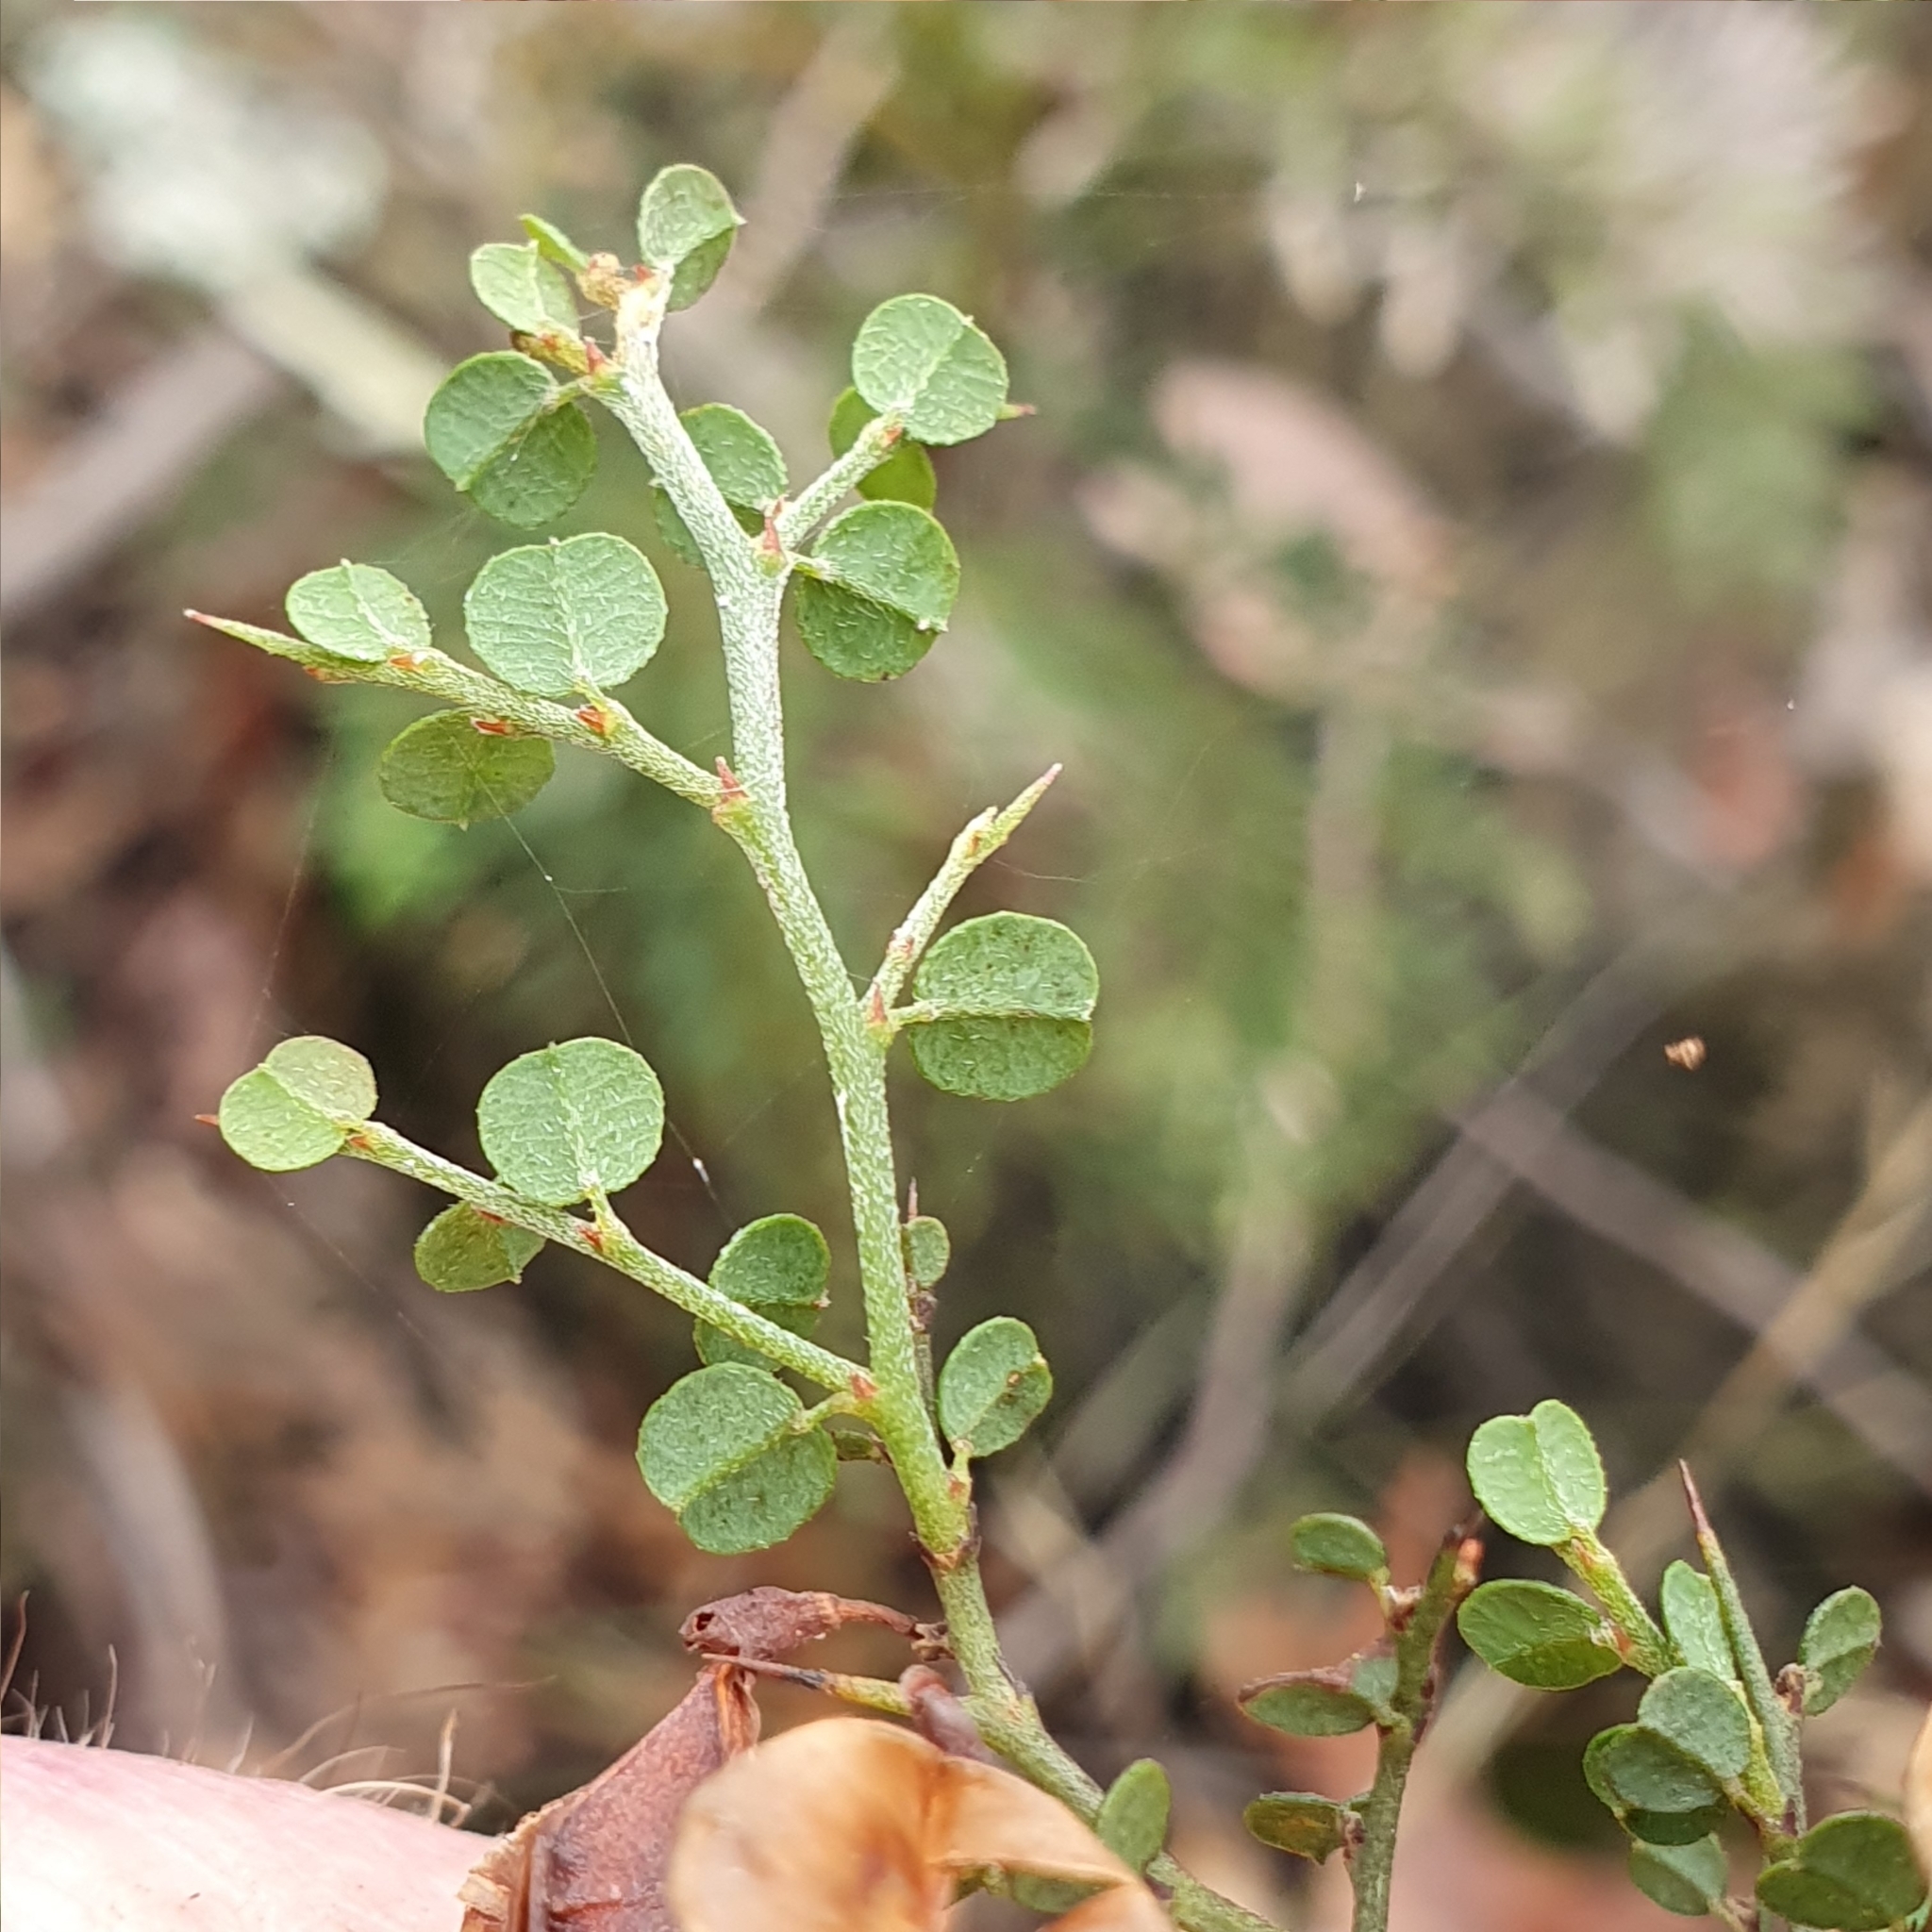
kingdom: Plantae
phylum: Tracheophyta
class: Magnoliopsida
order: Fabales
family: Fabaceae
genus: Bossiaea
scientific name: Bossiaea obcordata
